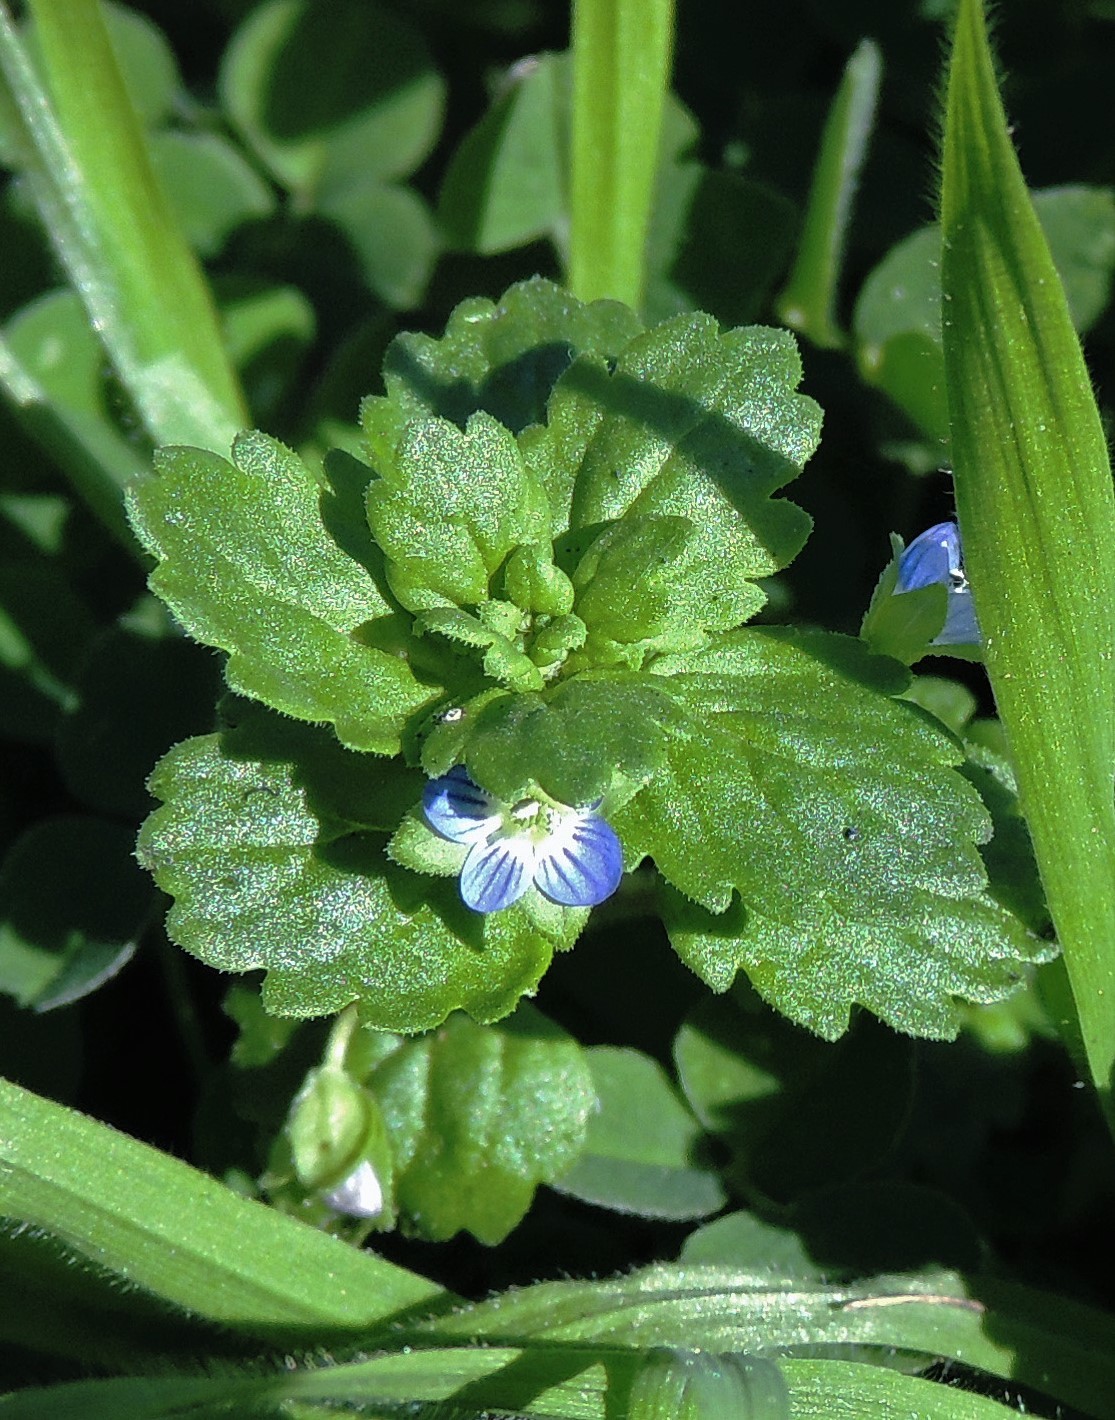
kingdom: Plantae
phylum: Tracheophyta
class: Magnoliopsida
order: Lamiales
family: Plantaginaceae
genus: Veronica
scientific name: Veronica persica
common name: Common field-speedwell
